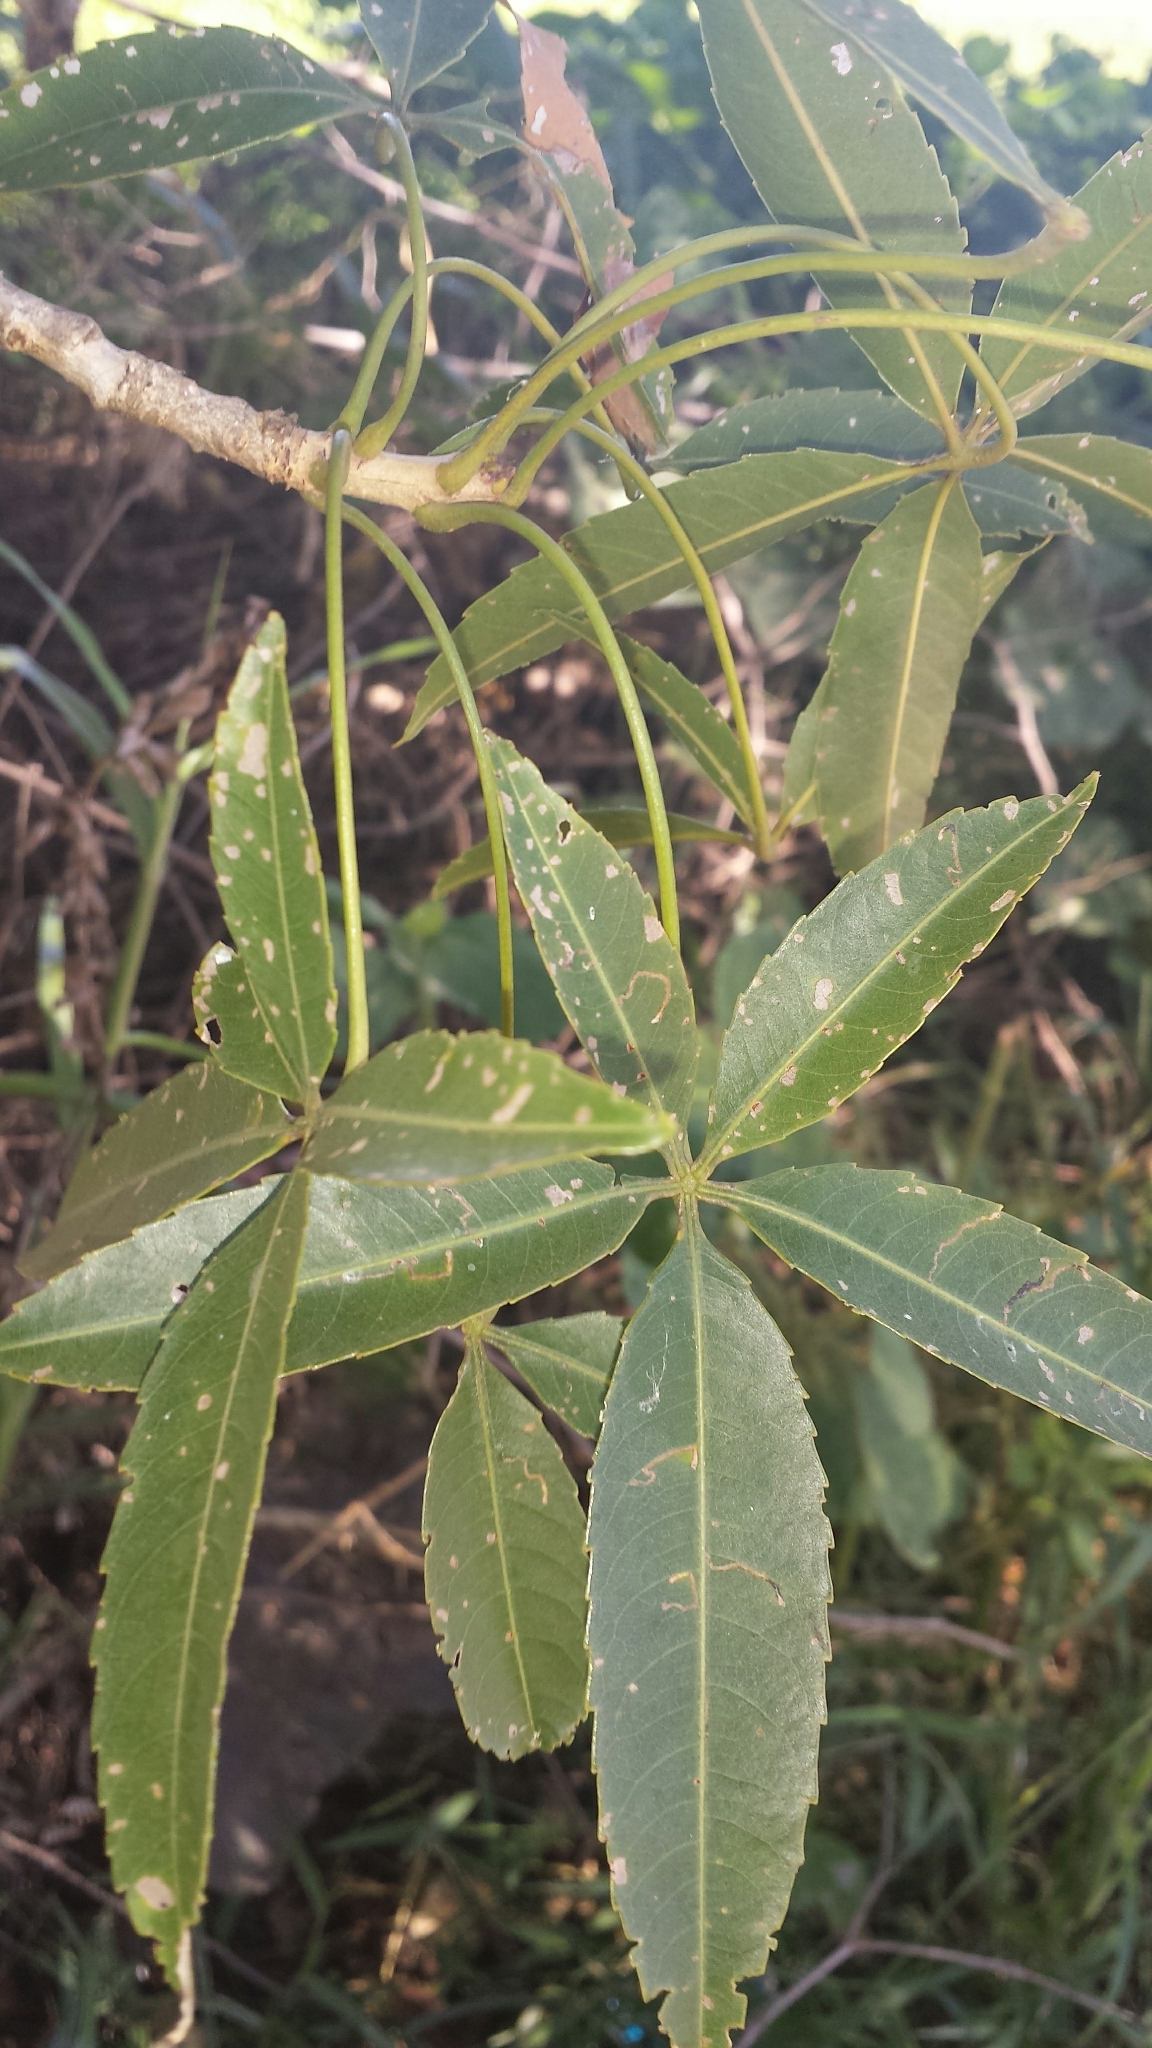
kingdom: Plantae
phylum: Tracheophyta
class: Magnoliopsida
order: Malvales
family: Malvaceae
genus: Adansonia
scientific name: Adansonia rubrostipa
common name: Fony baobab
